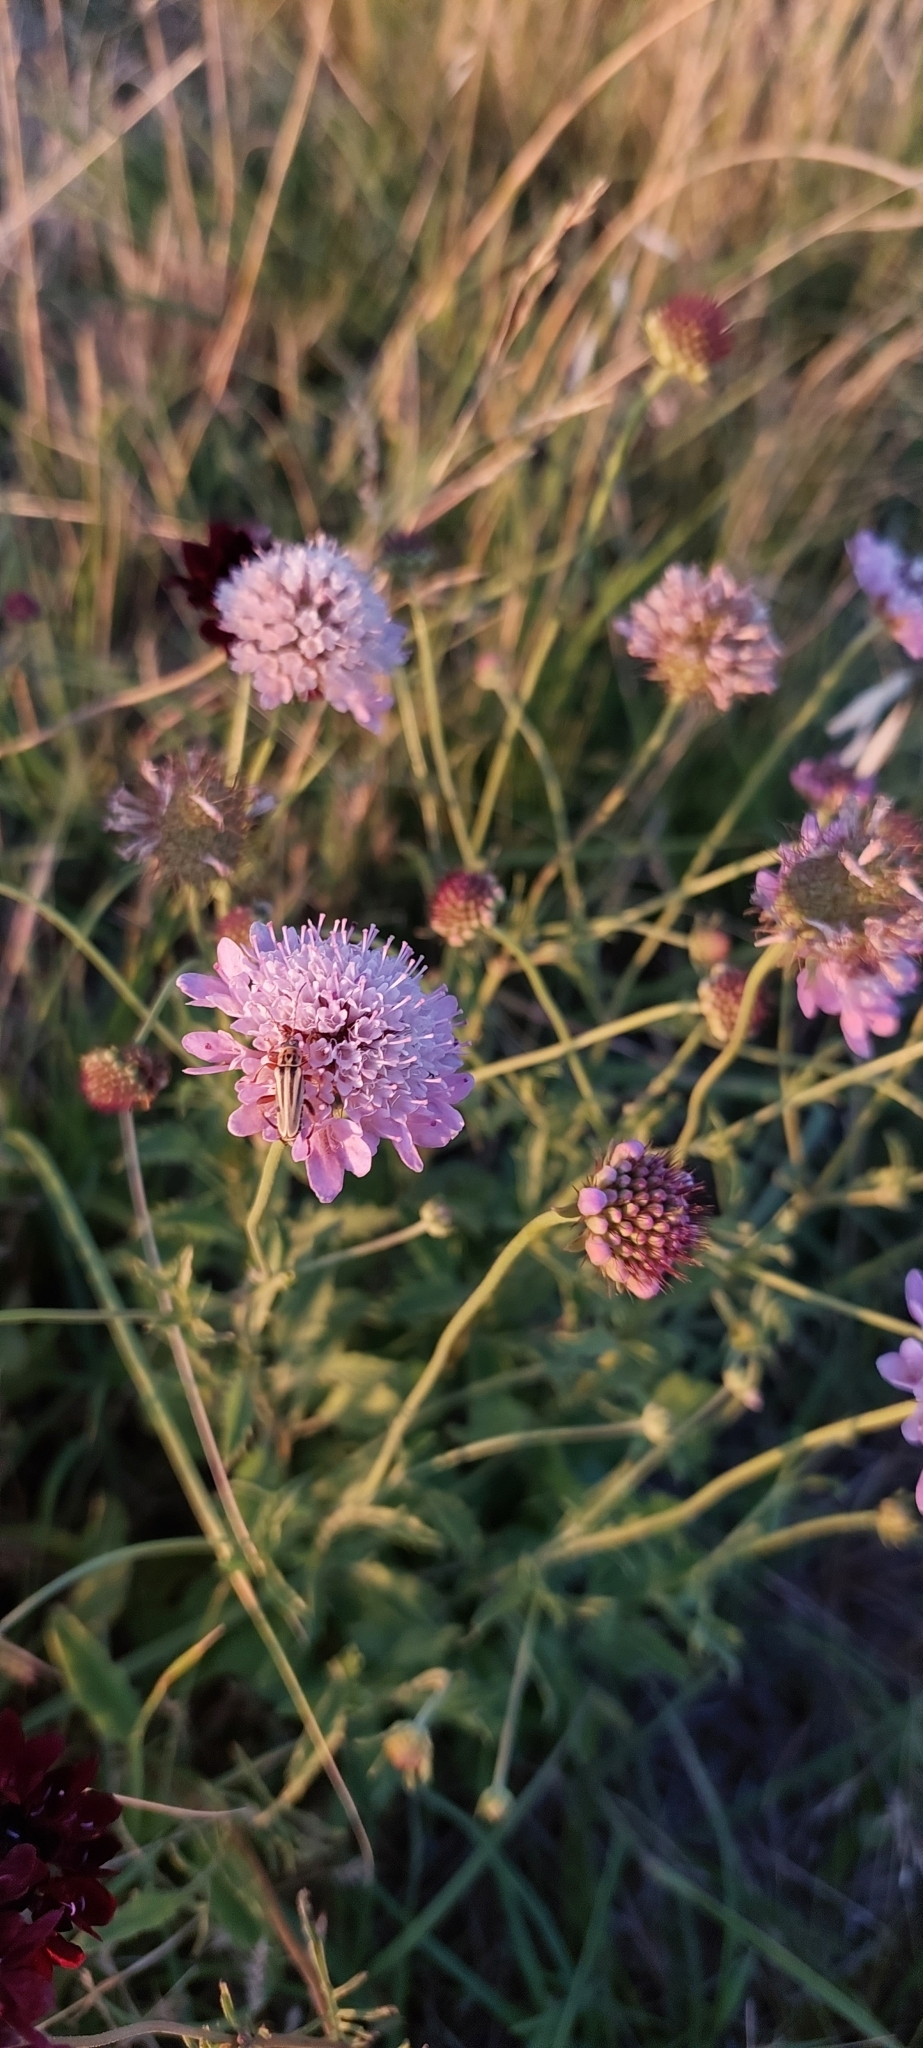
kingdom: Plantae
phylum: Tracheophyta
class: Magnoliopsida
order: Dipsacales
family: Caprifoliaceae
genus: Sixalix
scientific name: Sixalix atropurpurea
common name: Sweet scabious
